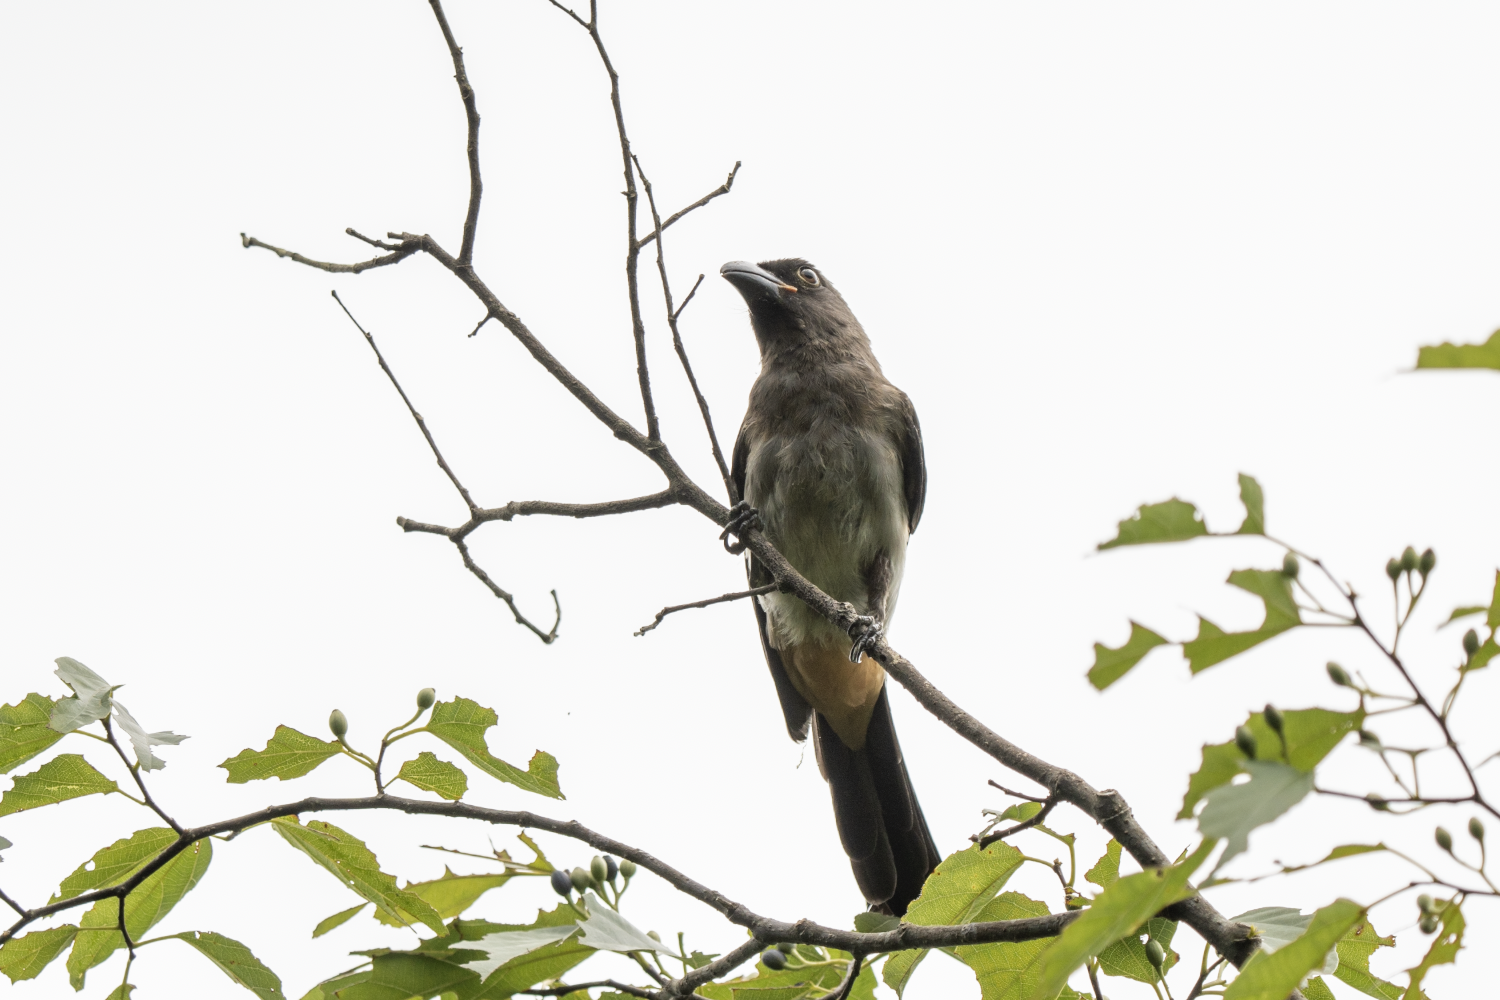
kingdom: Animalia
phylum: Chordata
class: Aves
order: Passeriformes
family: Corvidae
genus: Dendrocitta
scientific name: Dendrocitta formosae
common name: Grey treepie
